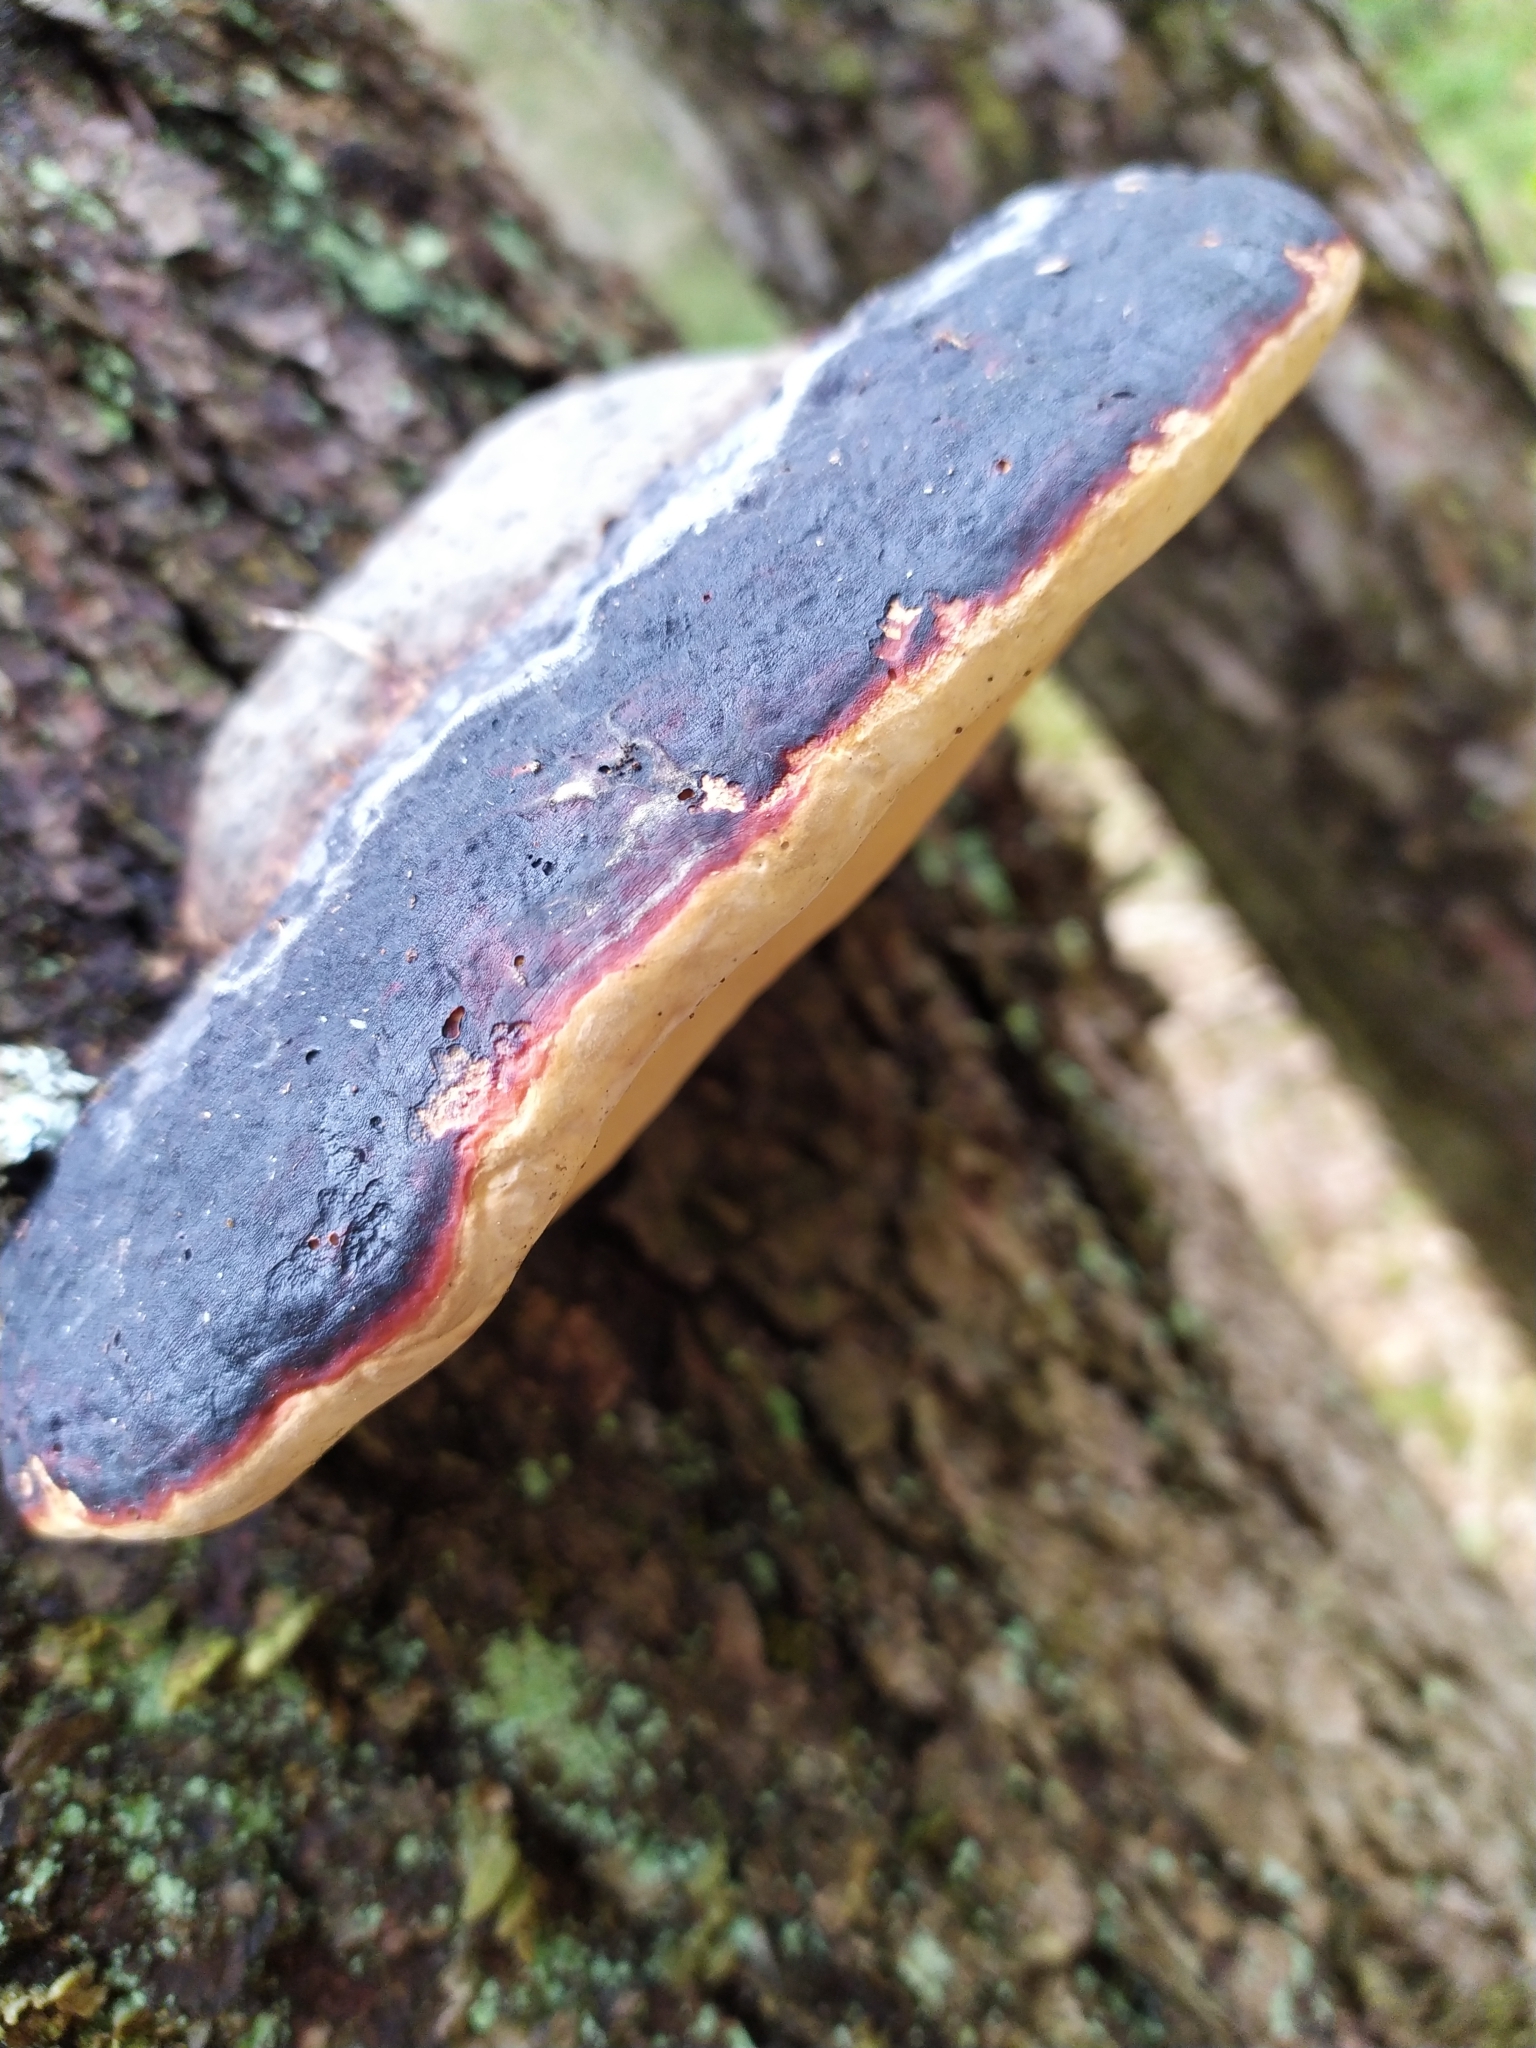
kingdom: Fungi
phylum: Basidiomycota
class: Agaricomycetes
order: Polyporales
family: Fomitopsidaceae
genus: Fomitopsis
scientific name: Fomitopsis pinicola
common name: Red-belted bracket
